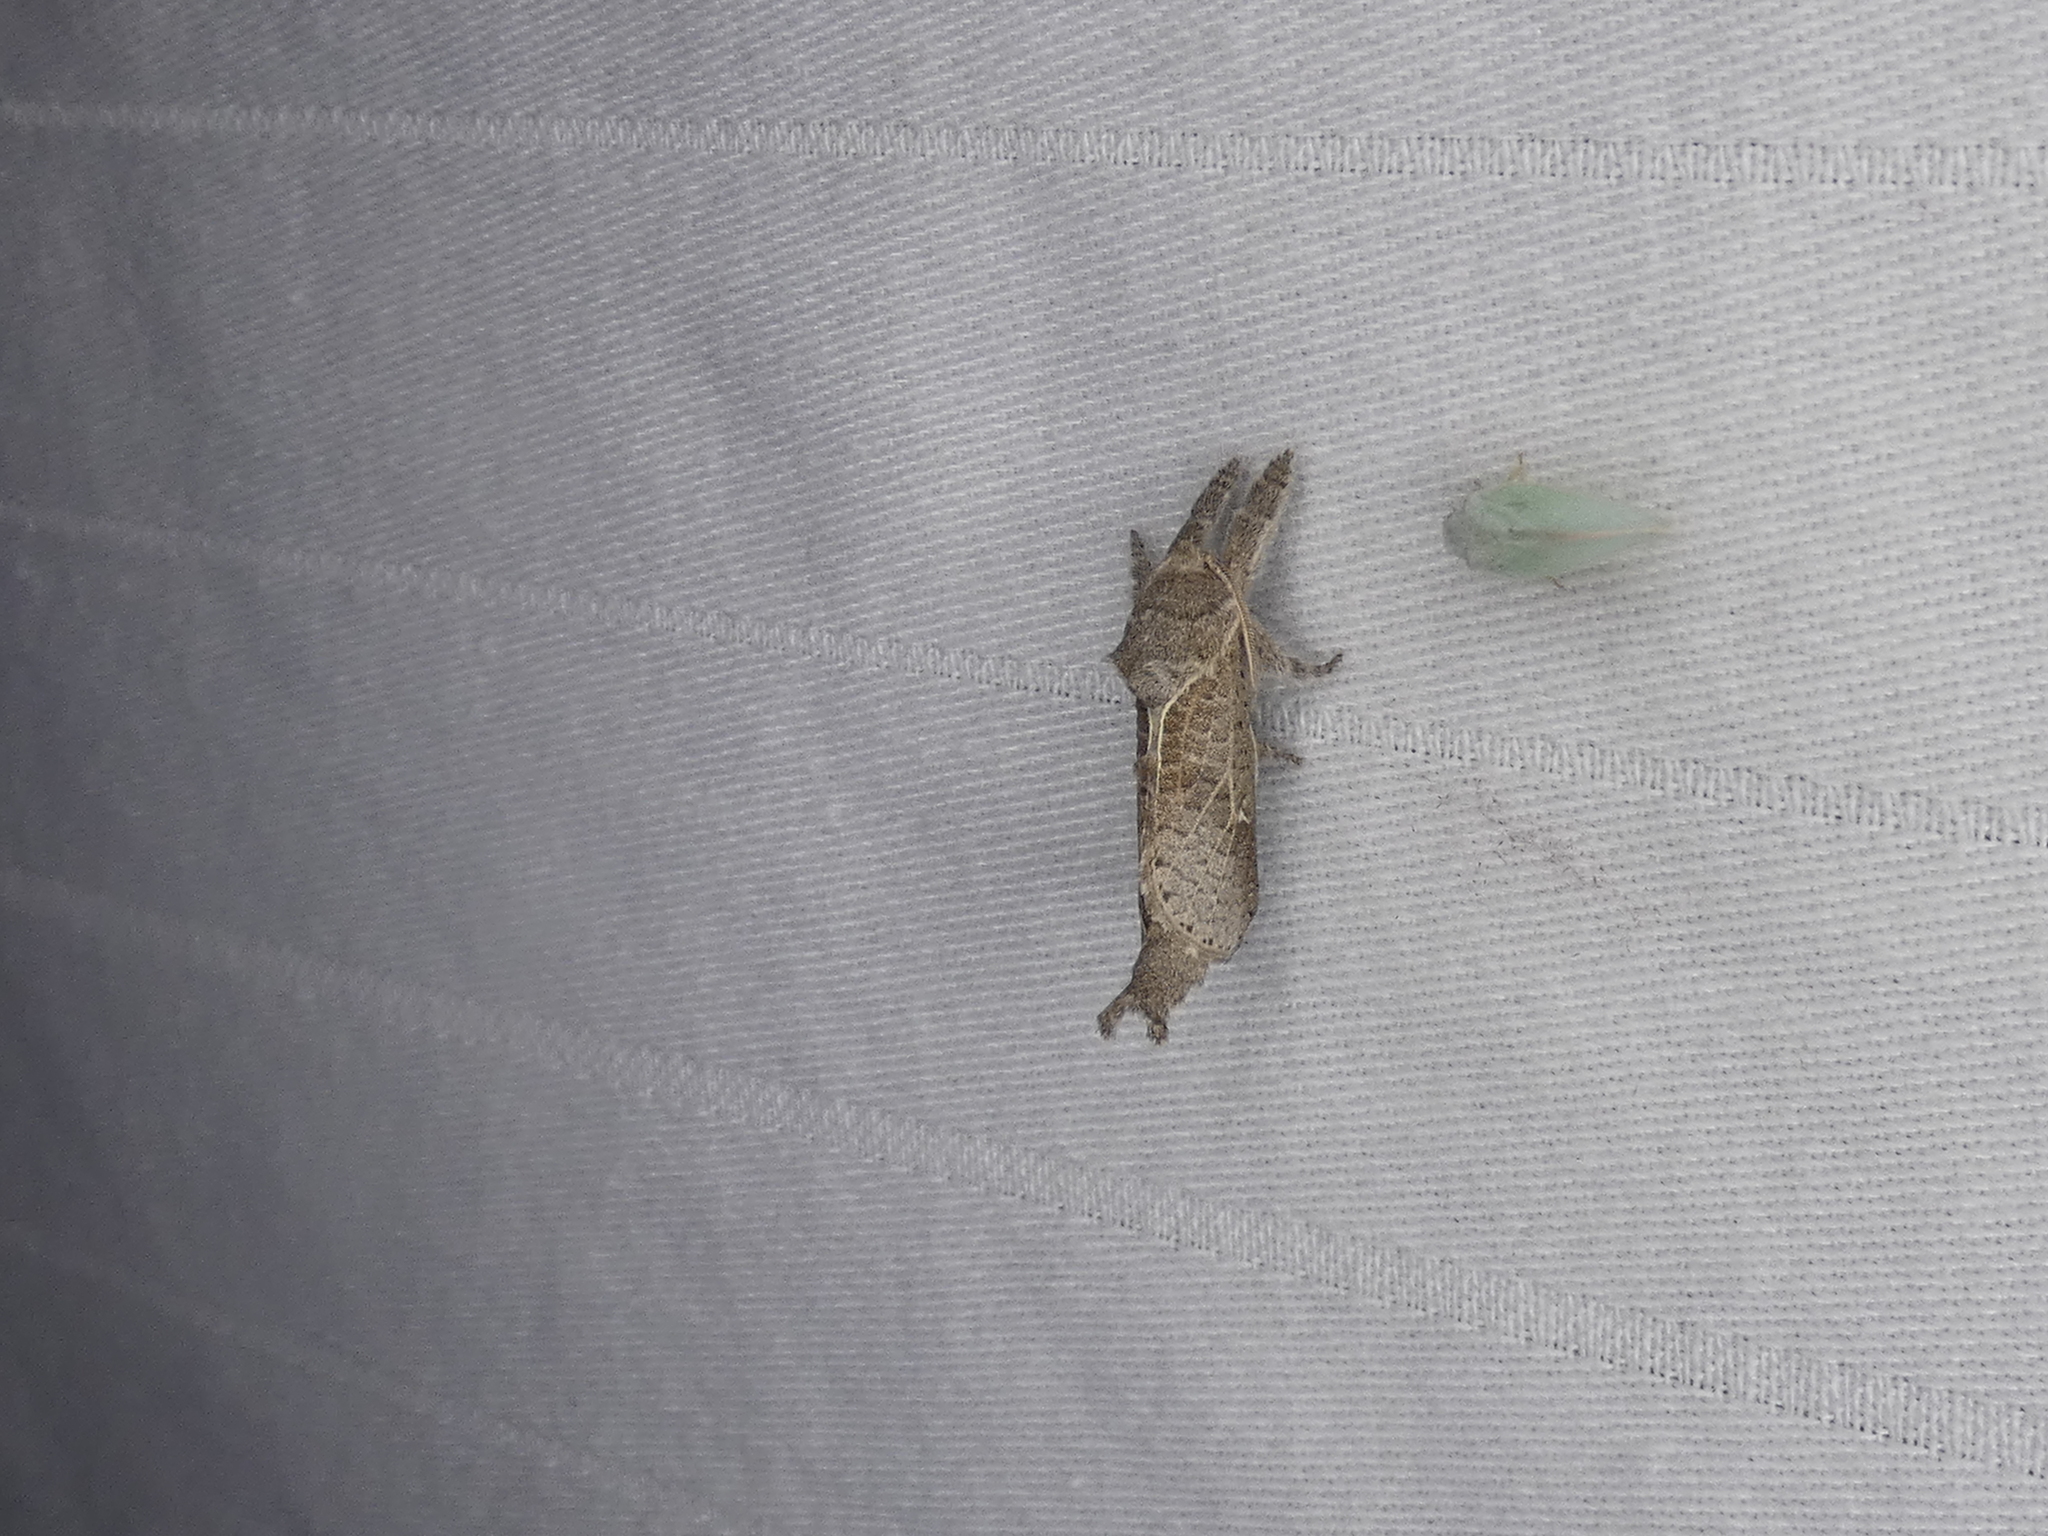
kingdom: Animalia
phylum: Arthropoda
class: Insecta
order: Lepidoptera
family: Cossidae
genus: Givira
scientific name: Givira anna
